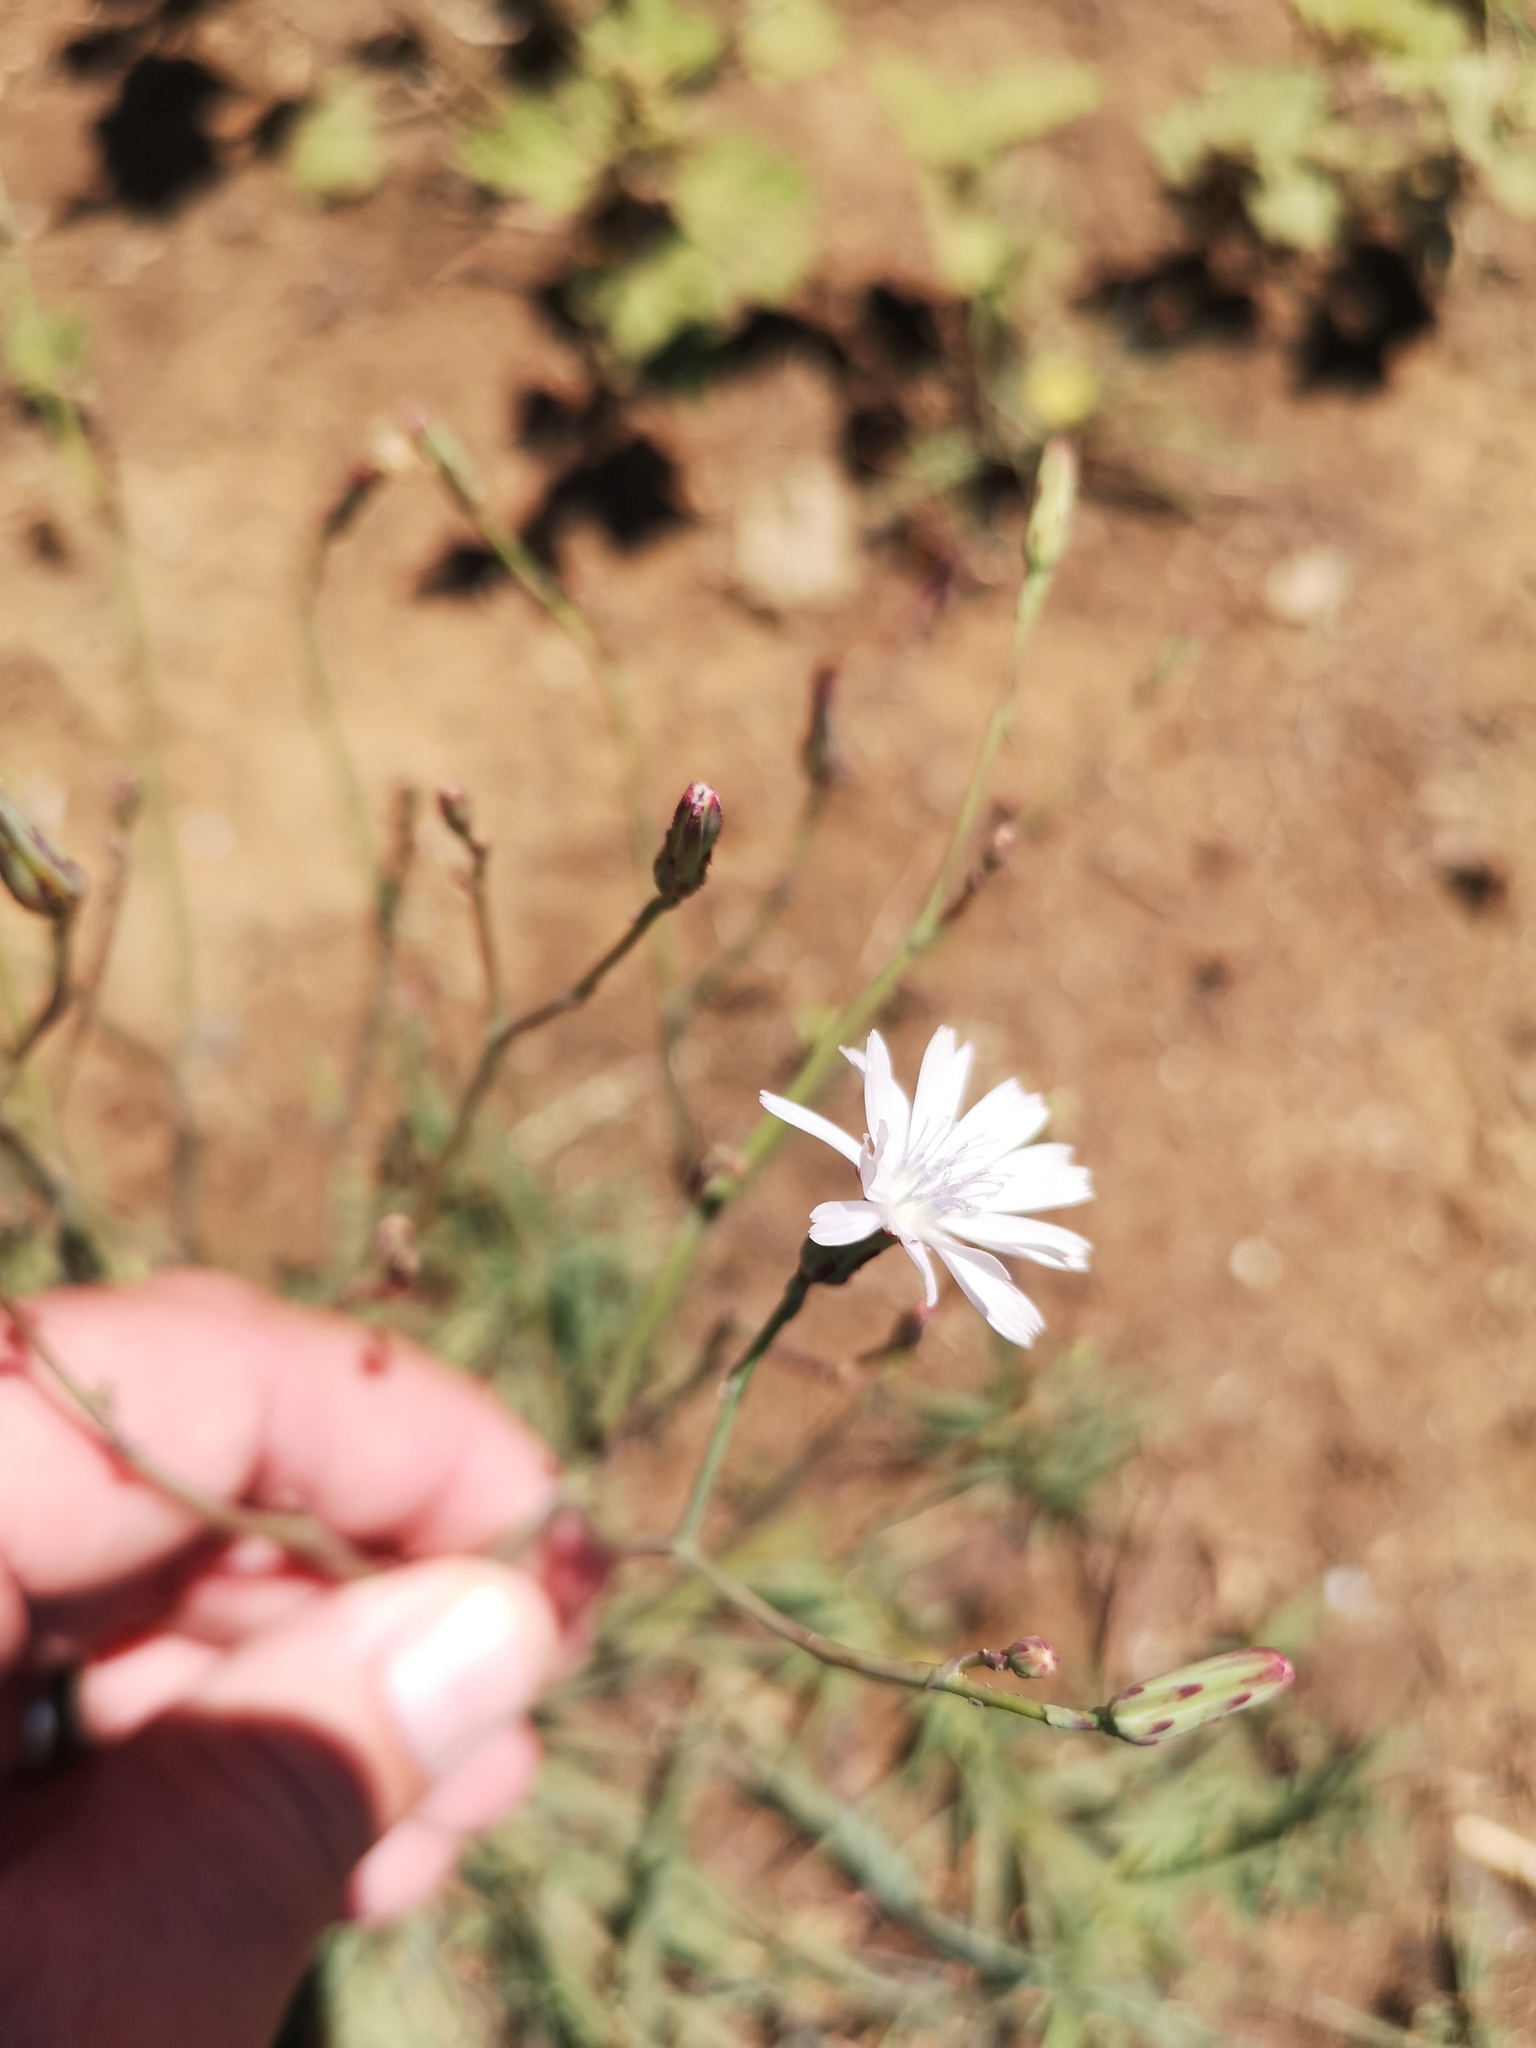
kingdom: Plantae
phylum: Tracheophyta
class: Magnoliopsida
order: Asterales
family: Asteraceae
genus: Lactuca
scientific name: Lactuca inermis
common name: Wild lettuce
